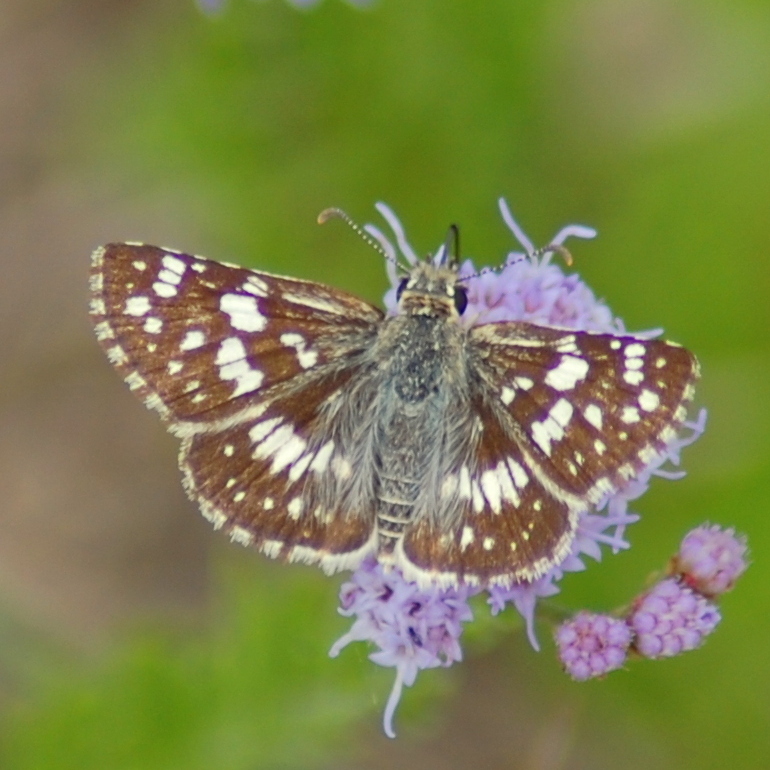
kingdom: Animalia
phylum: Arthropoda
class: Insecta
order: Lepidoptera
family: Hesperiidae
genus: Burnsius
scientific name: Burnsius orcynoides
